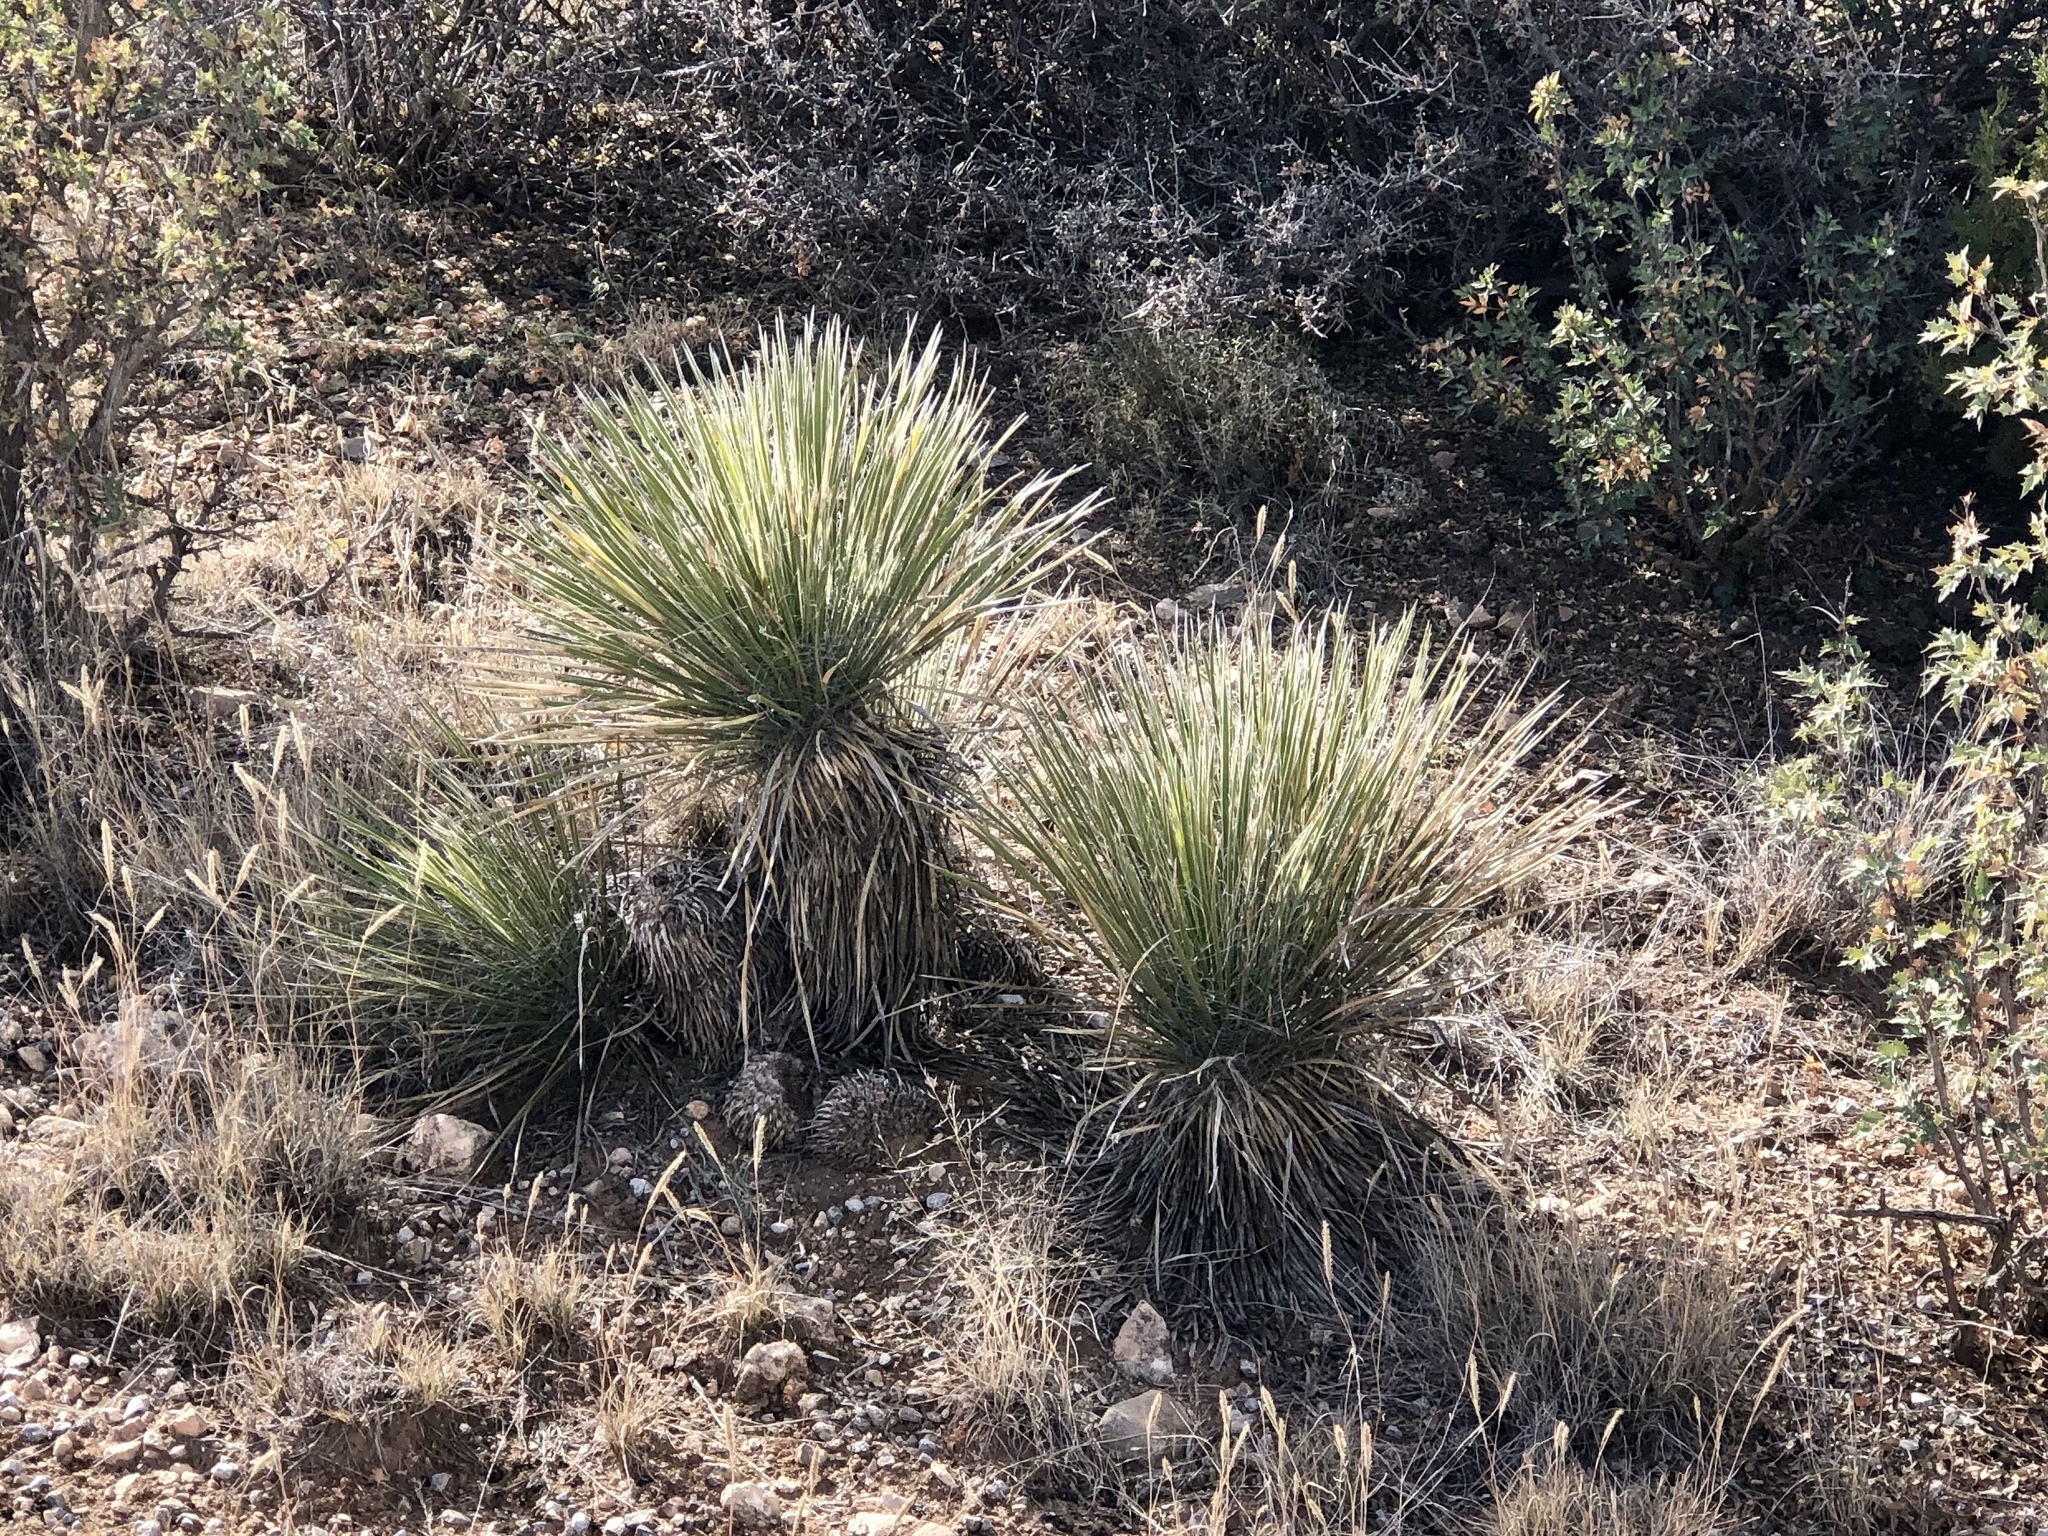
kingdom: Plantae
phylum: Tracheophyta
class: Liliopsida
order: Asparagales
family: Asparagaceae
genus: Yucca
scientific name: Yucca elata
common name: Palmella
